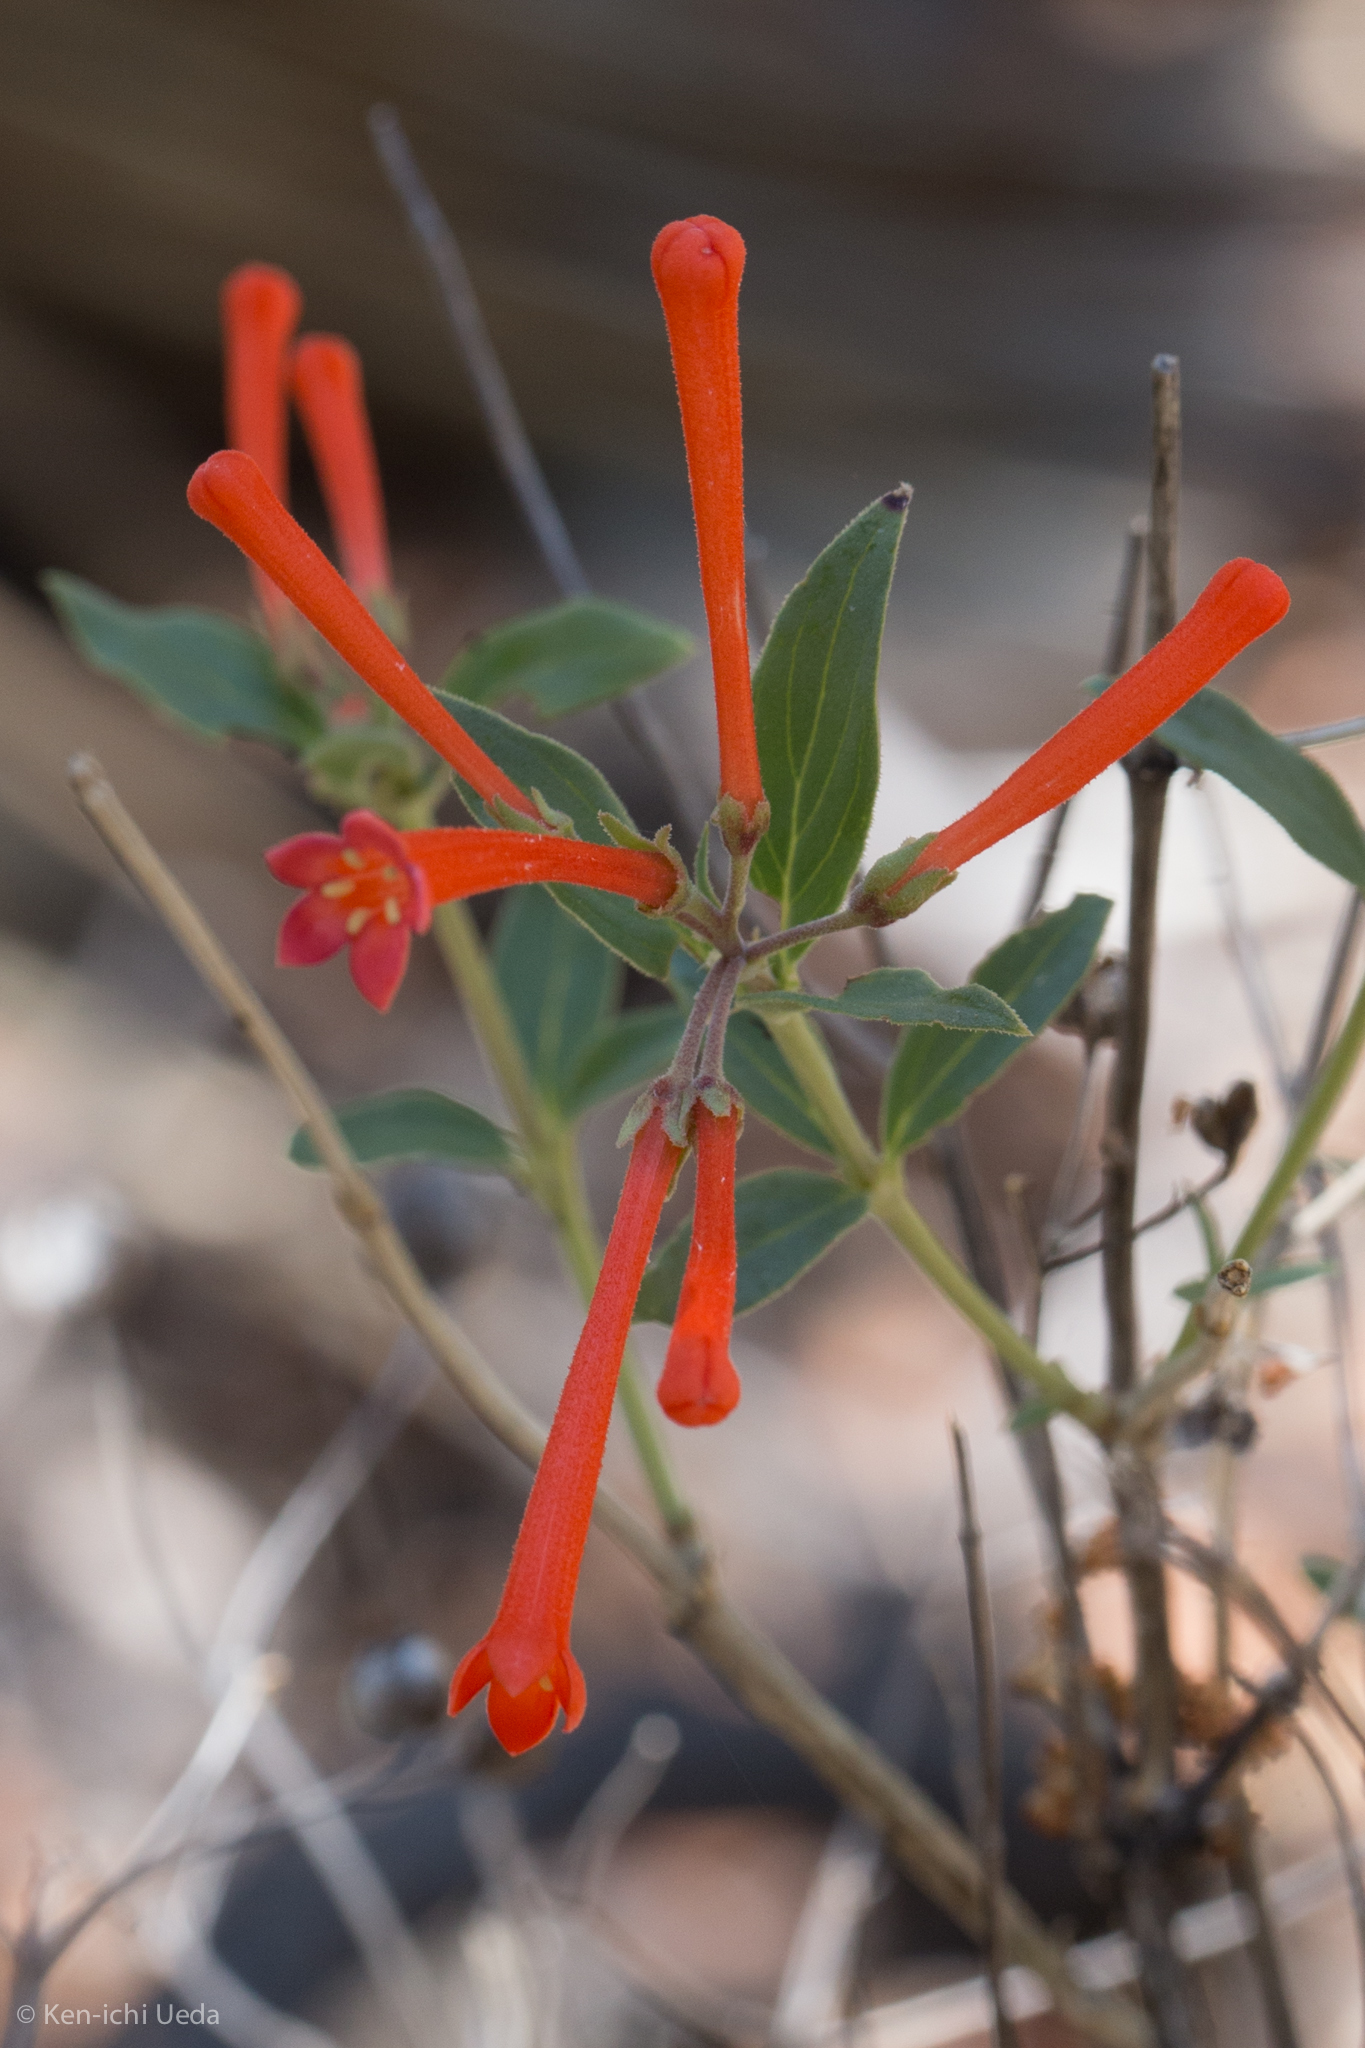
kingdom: Plantae
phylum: Tracheophyta
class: Magnoliopsida
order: Gentianales
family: Rubiaceae
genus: Bouvardia
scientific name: Bouvardia ternifolia
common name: Scarlet bouvardia
